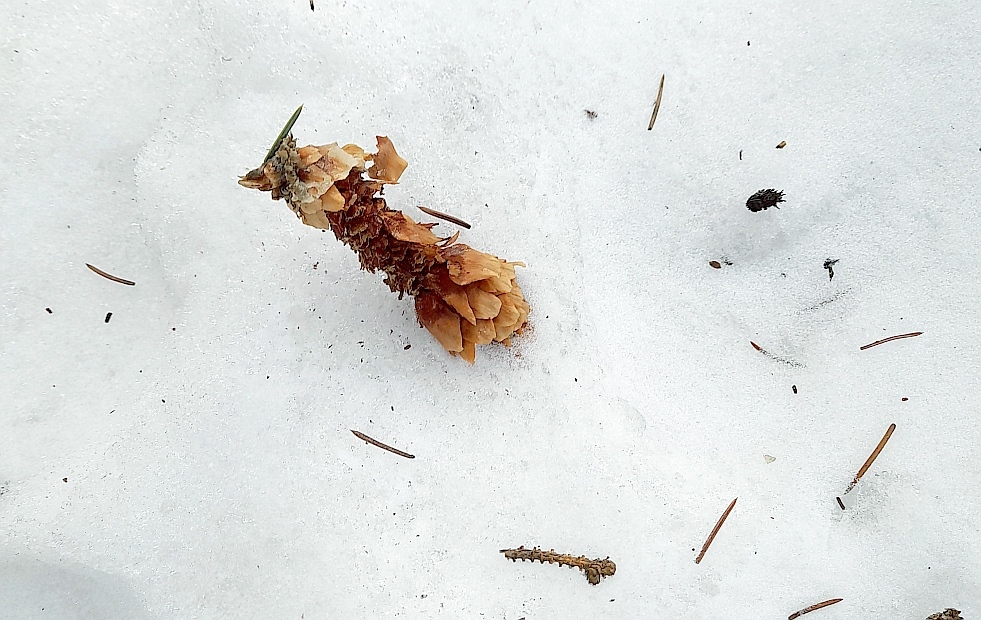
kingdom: Animalia
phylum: Chordata
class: Mammalia
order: Rodentia
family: Sciuridae
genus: Sciurus
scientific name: Sciurus vulgaris
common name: Eurasian red squirrel
